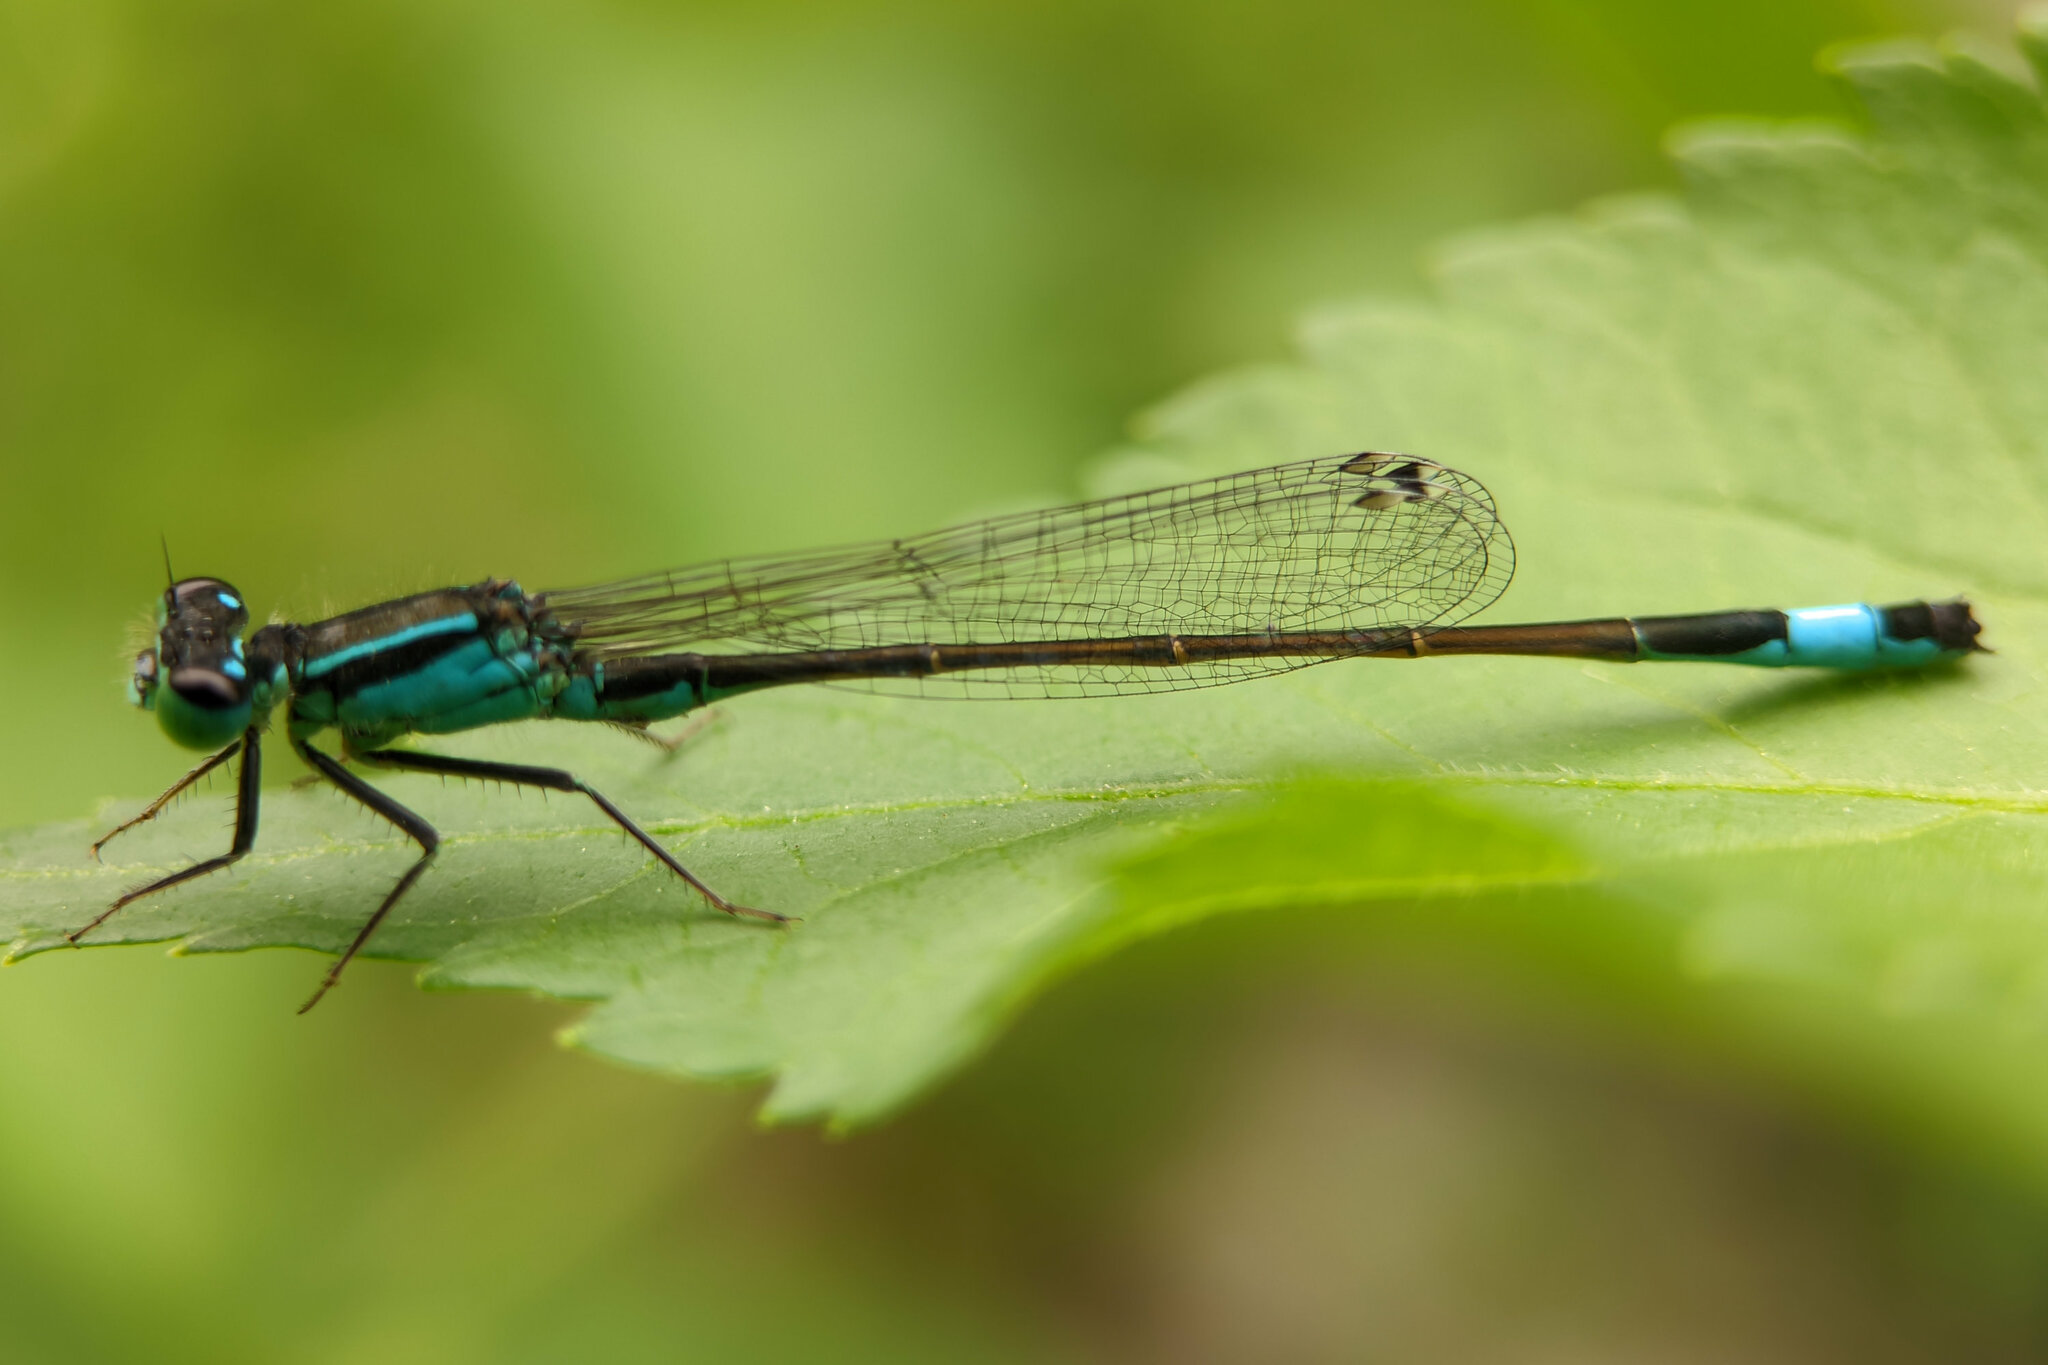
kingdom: Animalia
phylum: Arthropoda
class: Insecta
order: Odonata
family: Coenagrionidae
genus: Ischnura
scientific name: Ischnura elegans
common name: Blue-tailed damselfly
